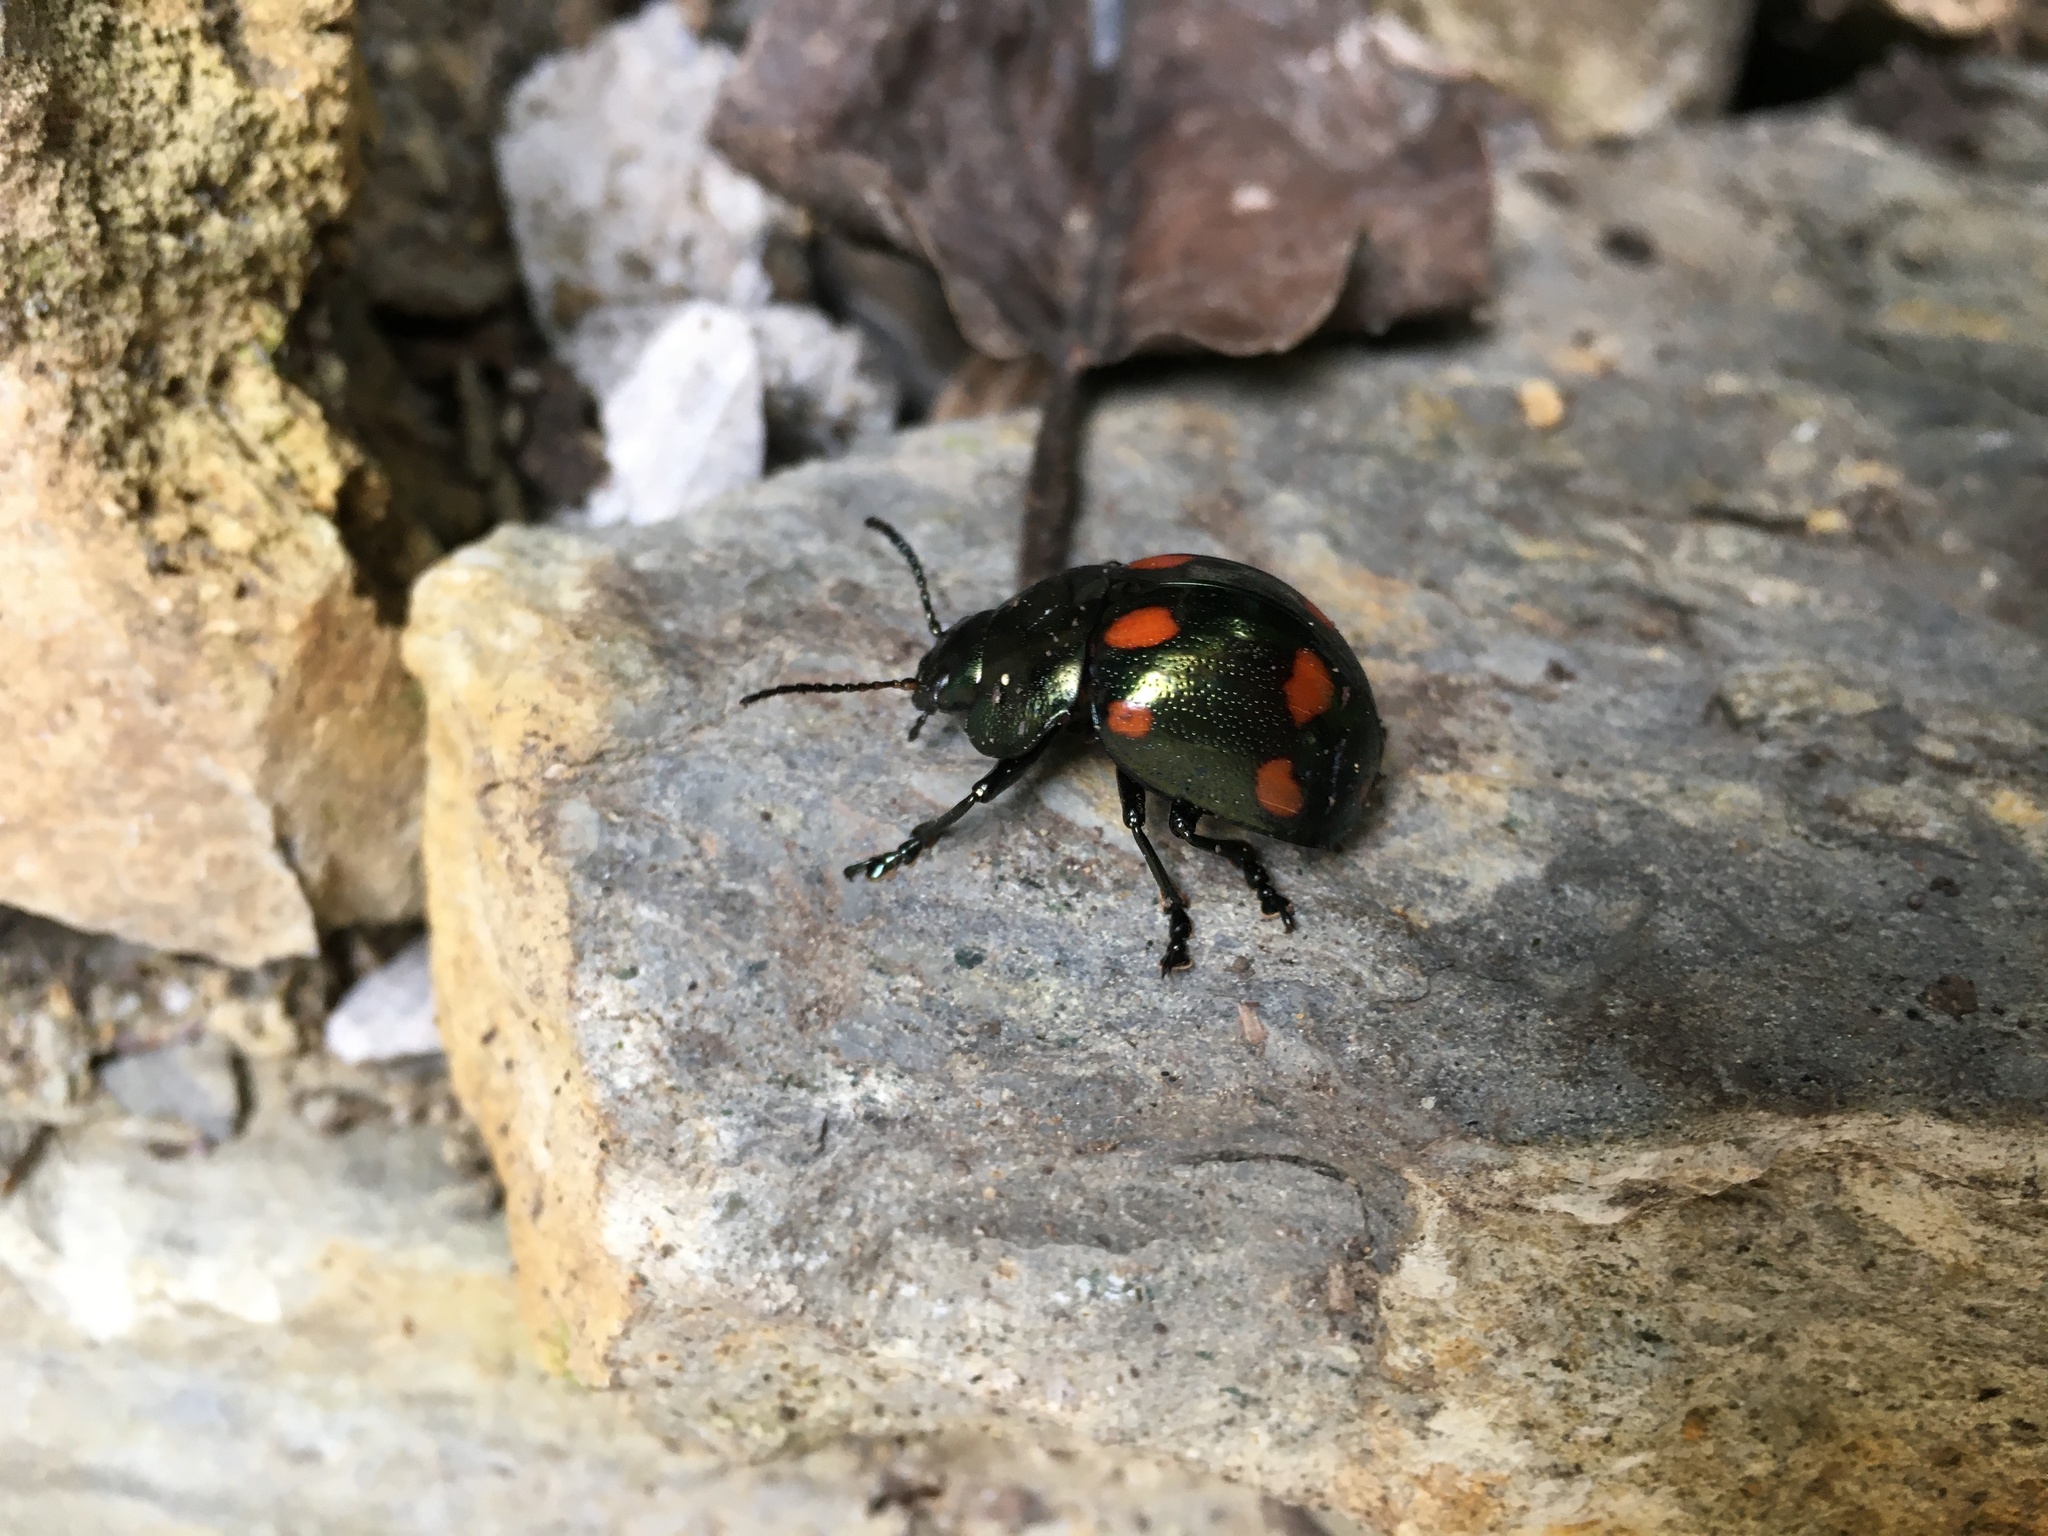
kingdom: Animalia
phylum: Arthropoda
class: Insecta
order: Coleoptera
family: Chrysomelidae
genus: Platyphora
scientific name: Platyphora
